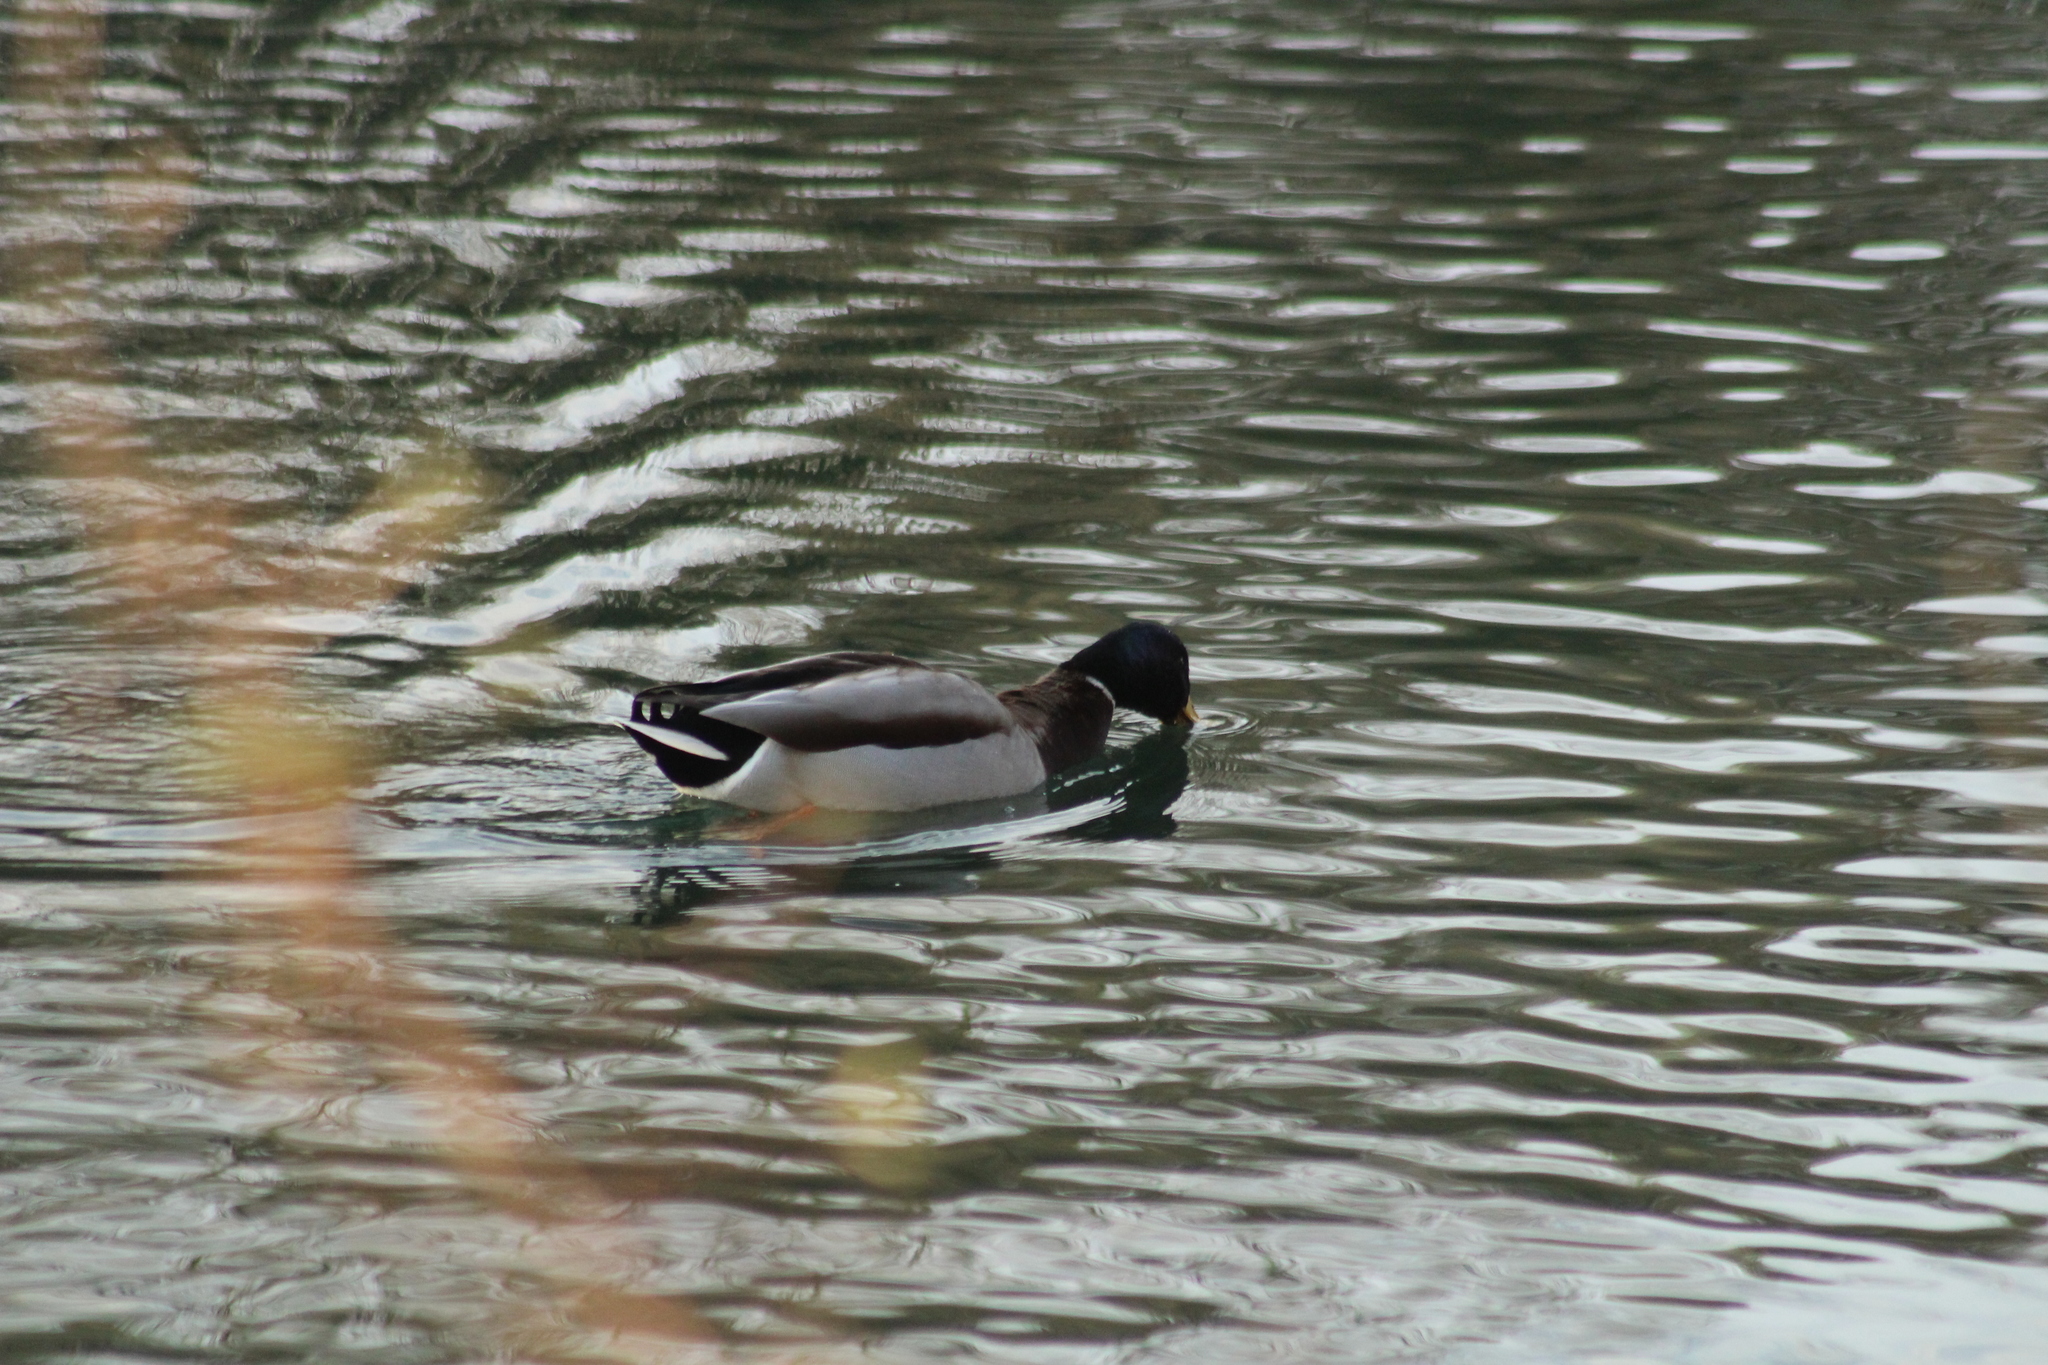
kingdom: Animalia
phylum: Chordata
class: Aves
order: Anseriformes
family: Anatidae
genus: Anas
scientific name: Anas platyrhynchos
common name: Mallard
